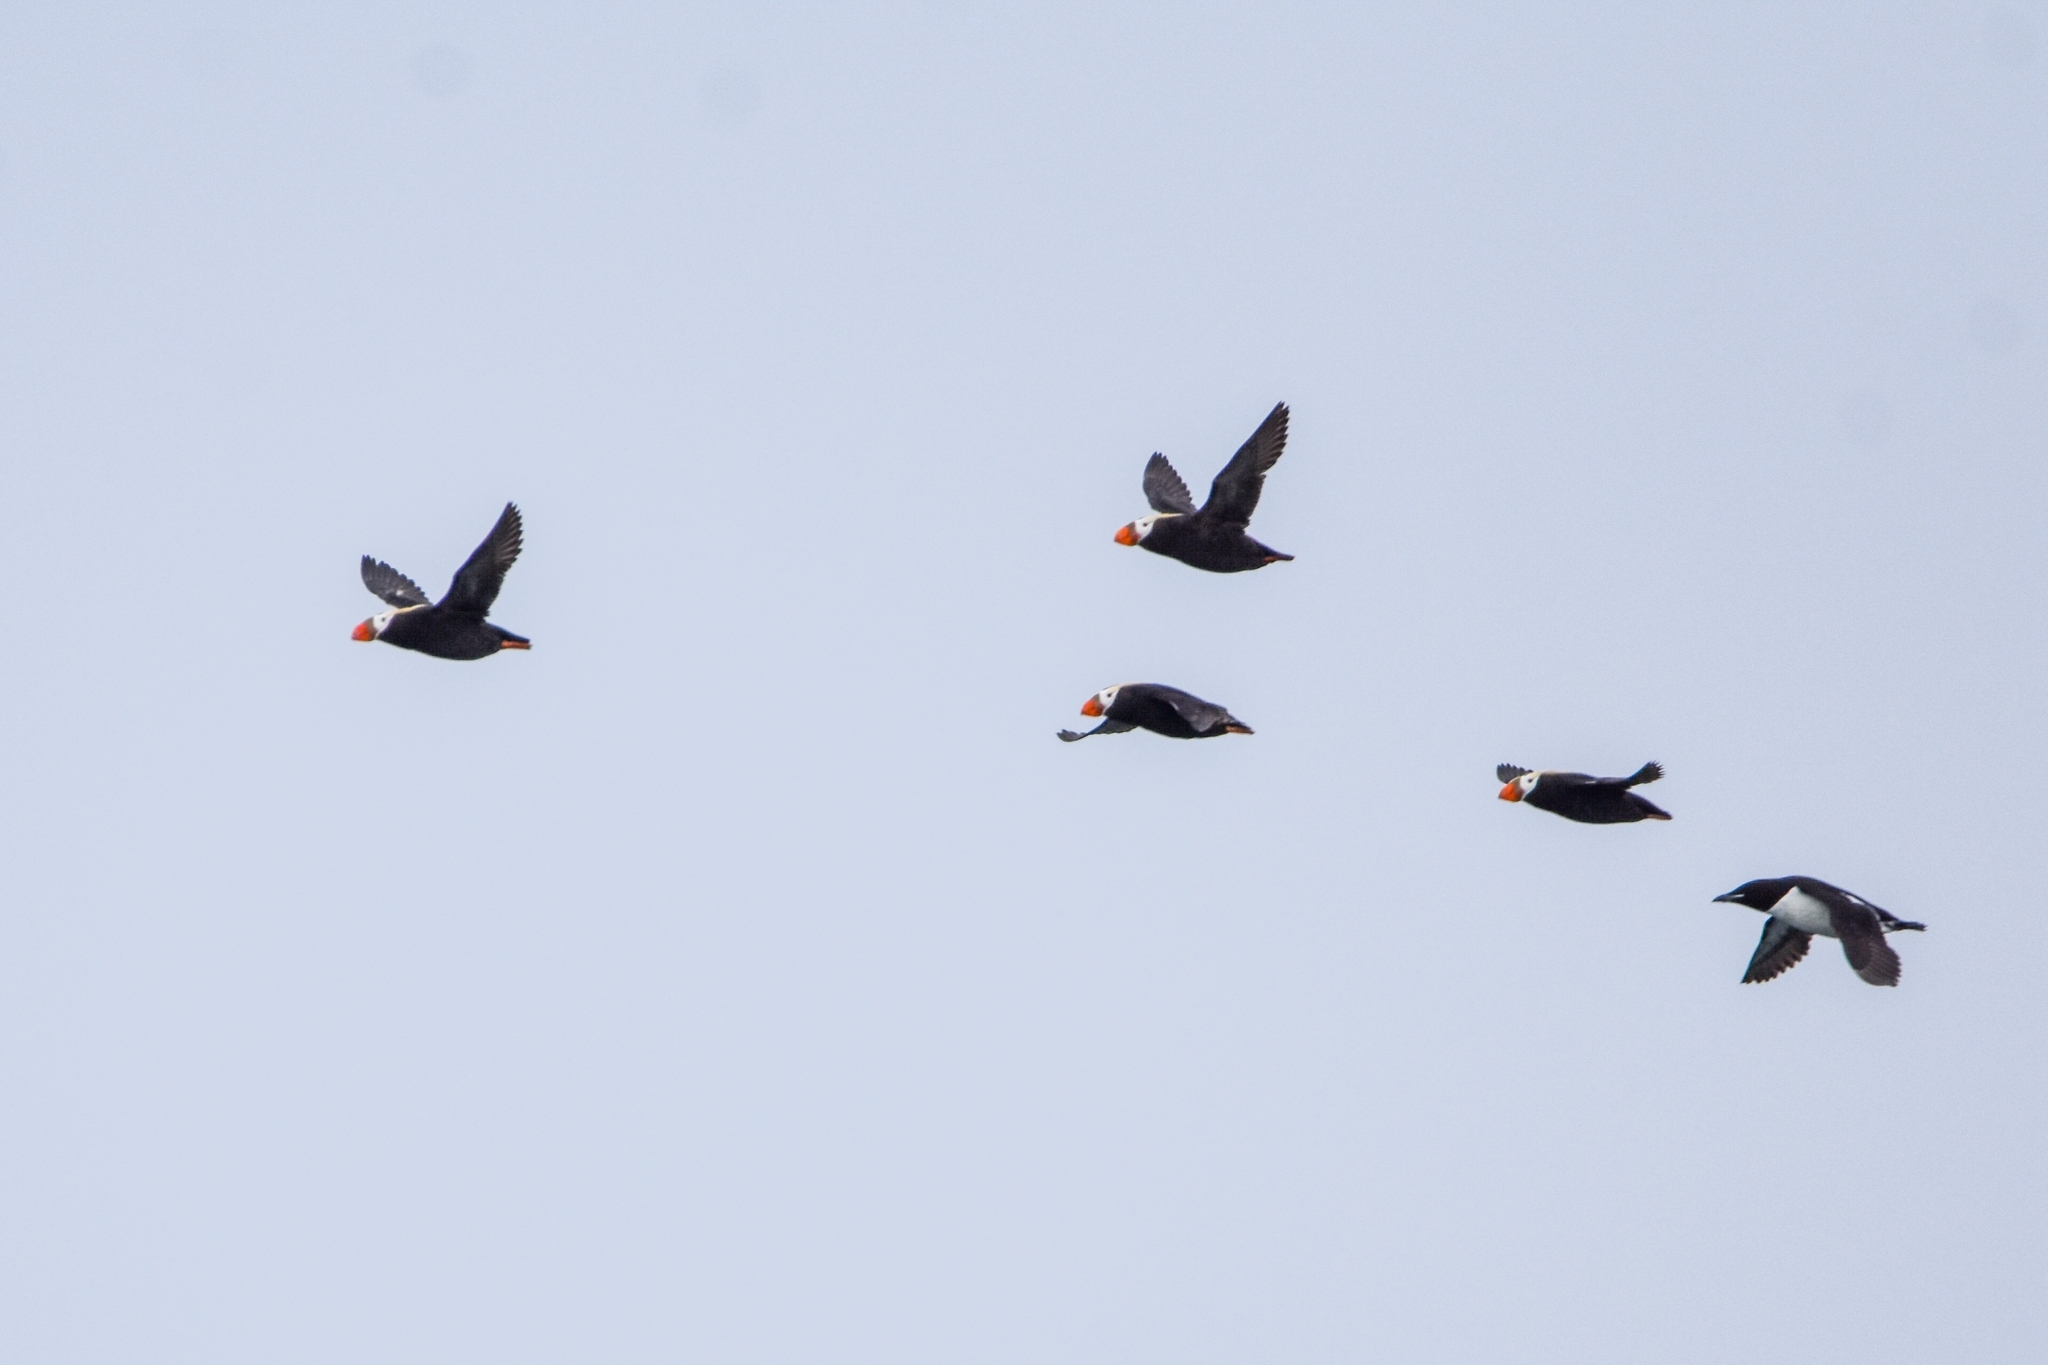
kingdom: Animalia
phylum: Chordata
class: Aves
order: Charadriiformes
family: Alcidae
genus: Fratercula
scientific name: Fratercula cirrhata
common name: Tufted puffin
